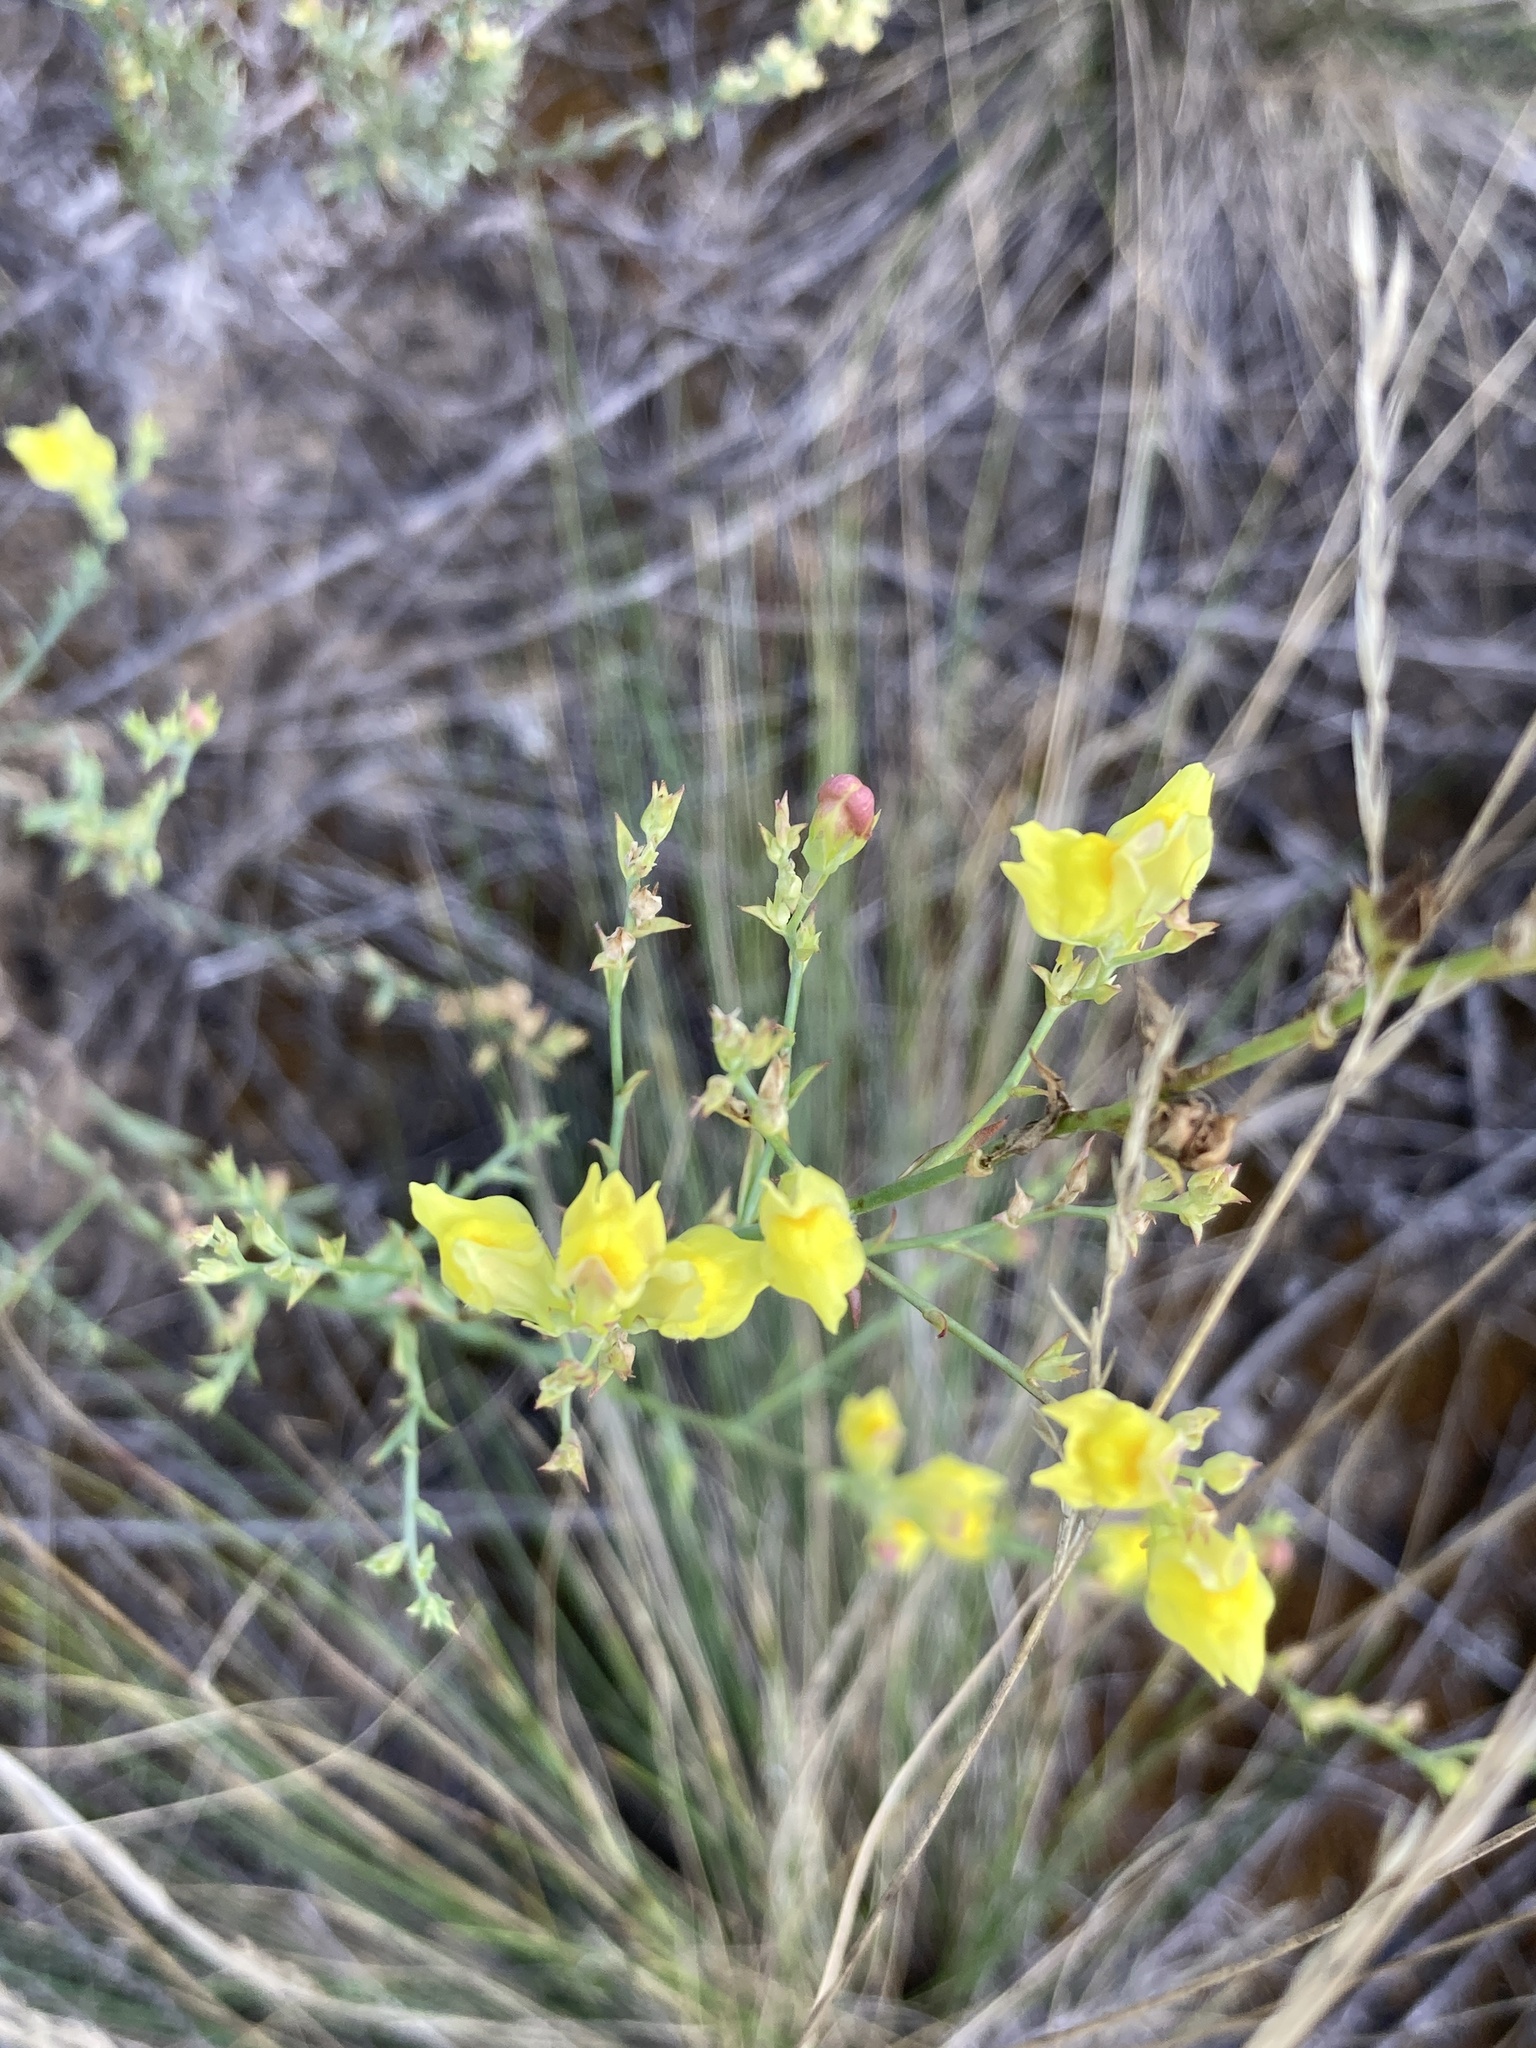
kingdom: Plantae
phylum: Tracheophyta
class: Magnoliopsida
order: Lamiales
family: Plantaginaceae
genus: Linaria
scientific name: Linaria genistifolia
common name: Broomleaf toadflax
